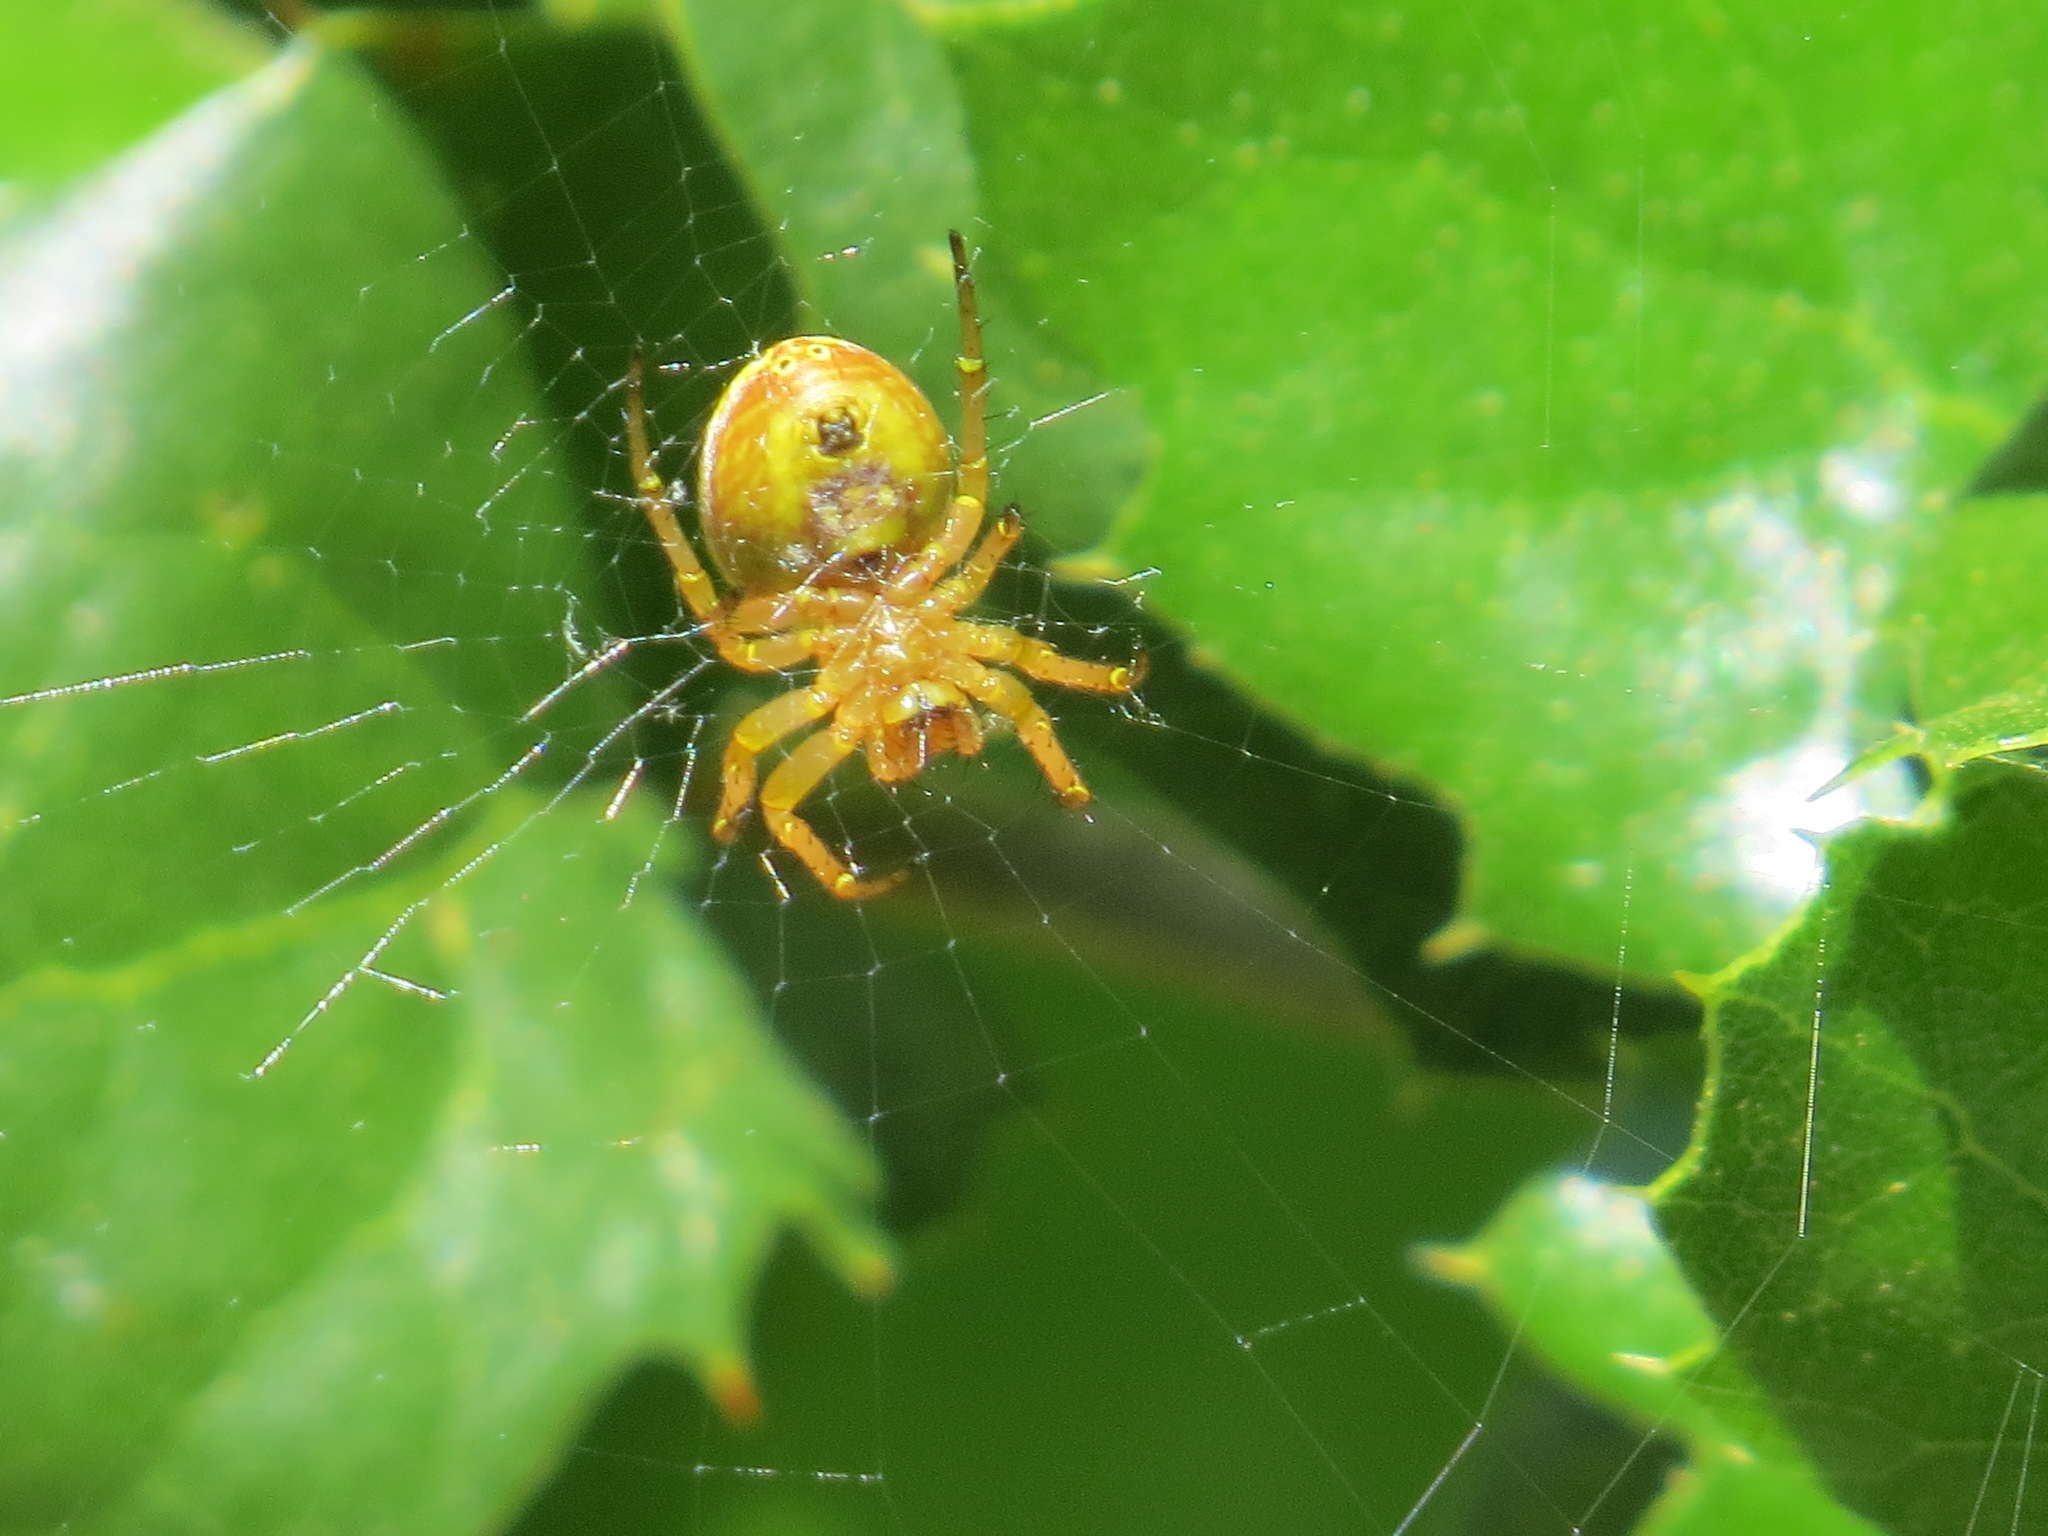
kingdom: Animalia
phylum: Arthropoda
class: Arachnida
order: Araneae
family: Araneidae
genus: Araniella
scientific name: Araniella displicata
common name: Sixspotted orb weaver
